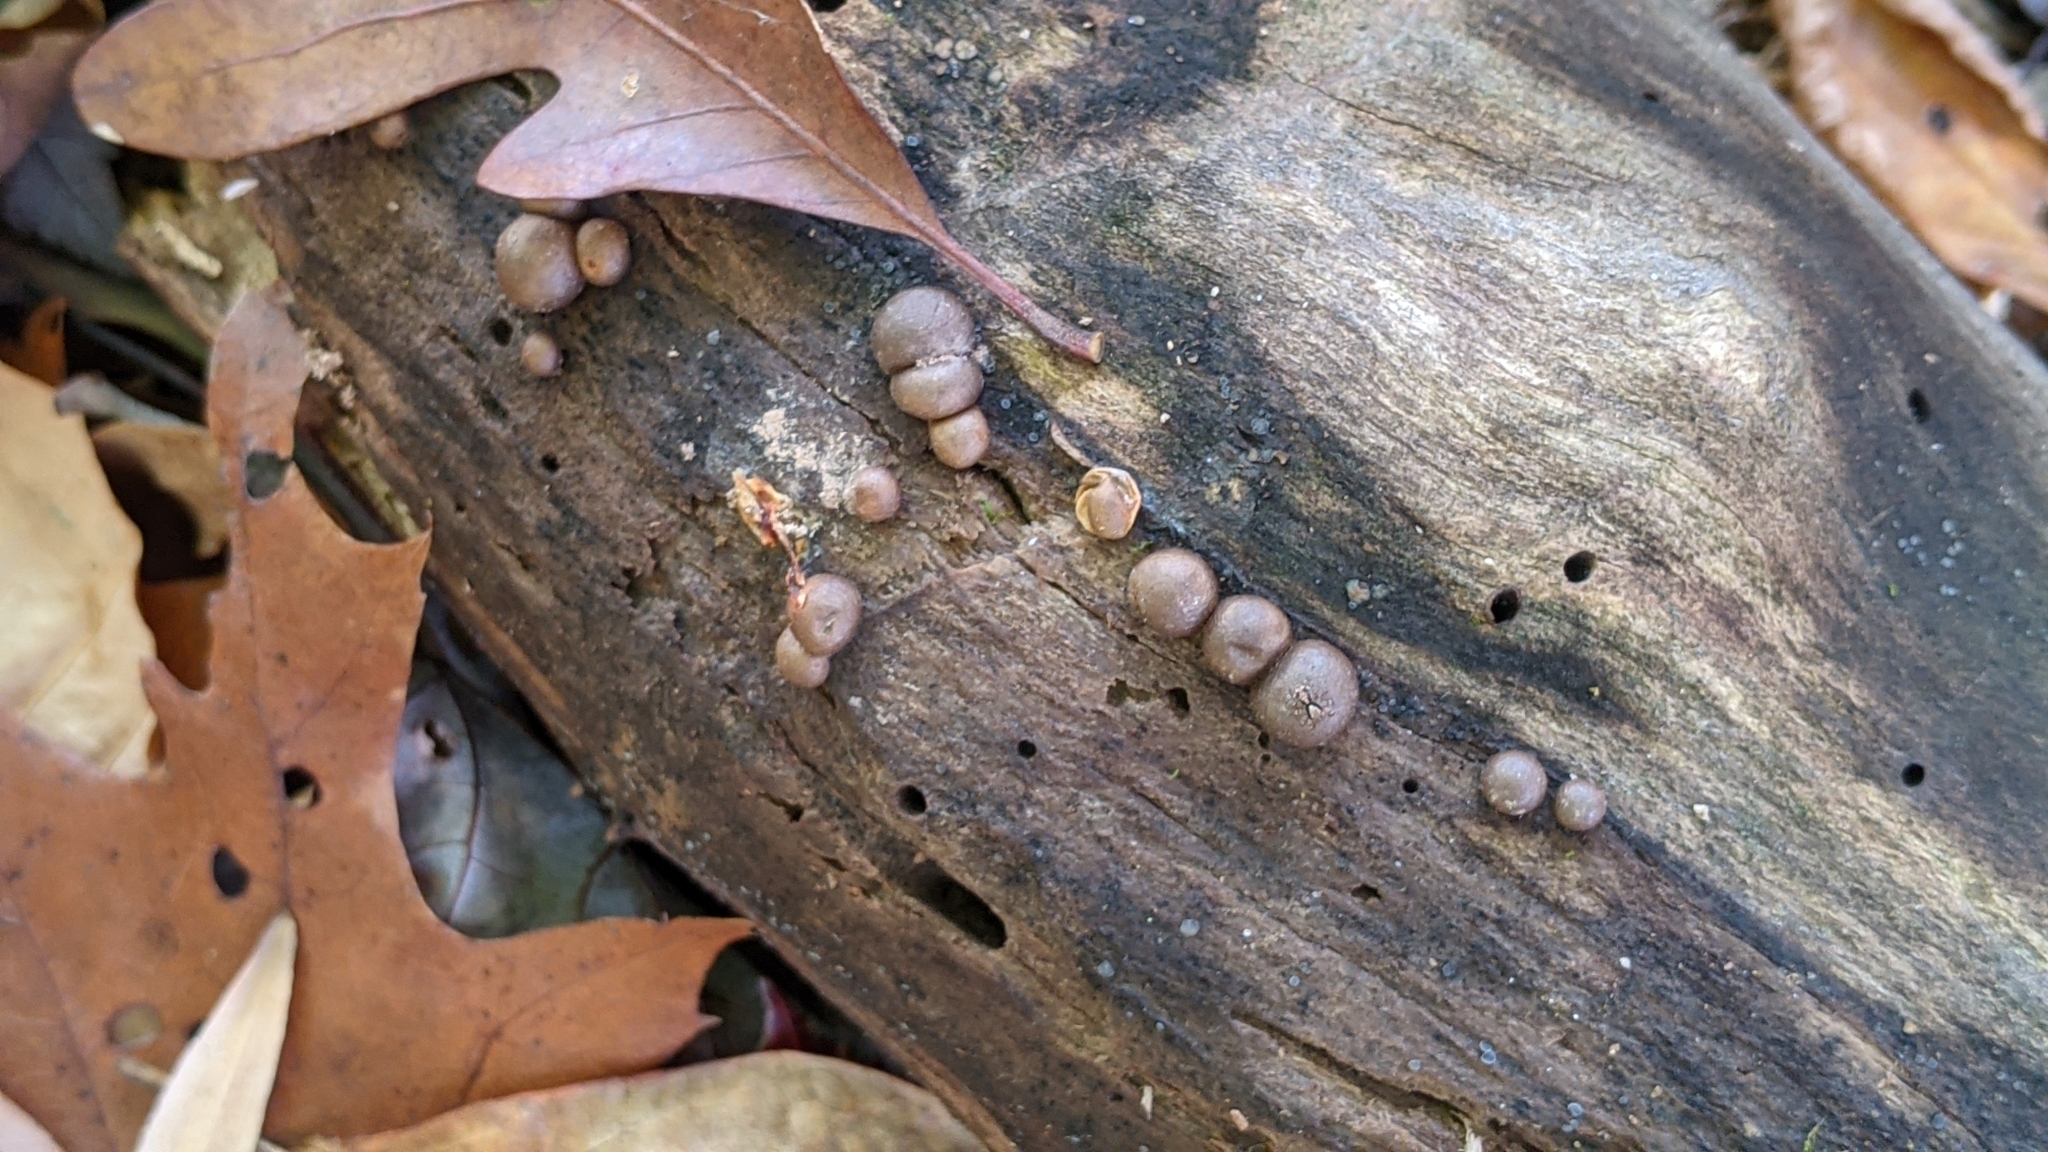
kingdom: Protozoa
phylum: Mycetozoa
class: Myxomycetes
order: Cribrariales
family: Tubiferaceae
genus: Lycogala
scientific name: Lycogala epidendrum
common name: Wolf's milk
